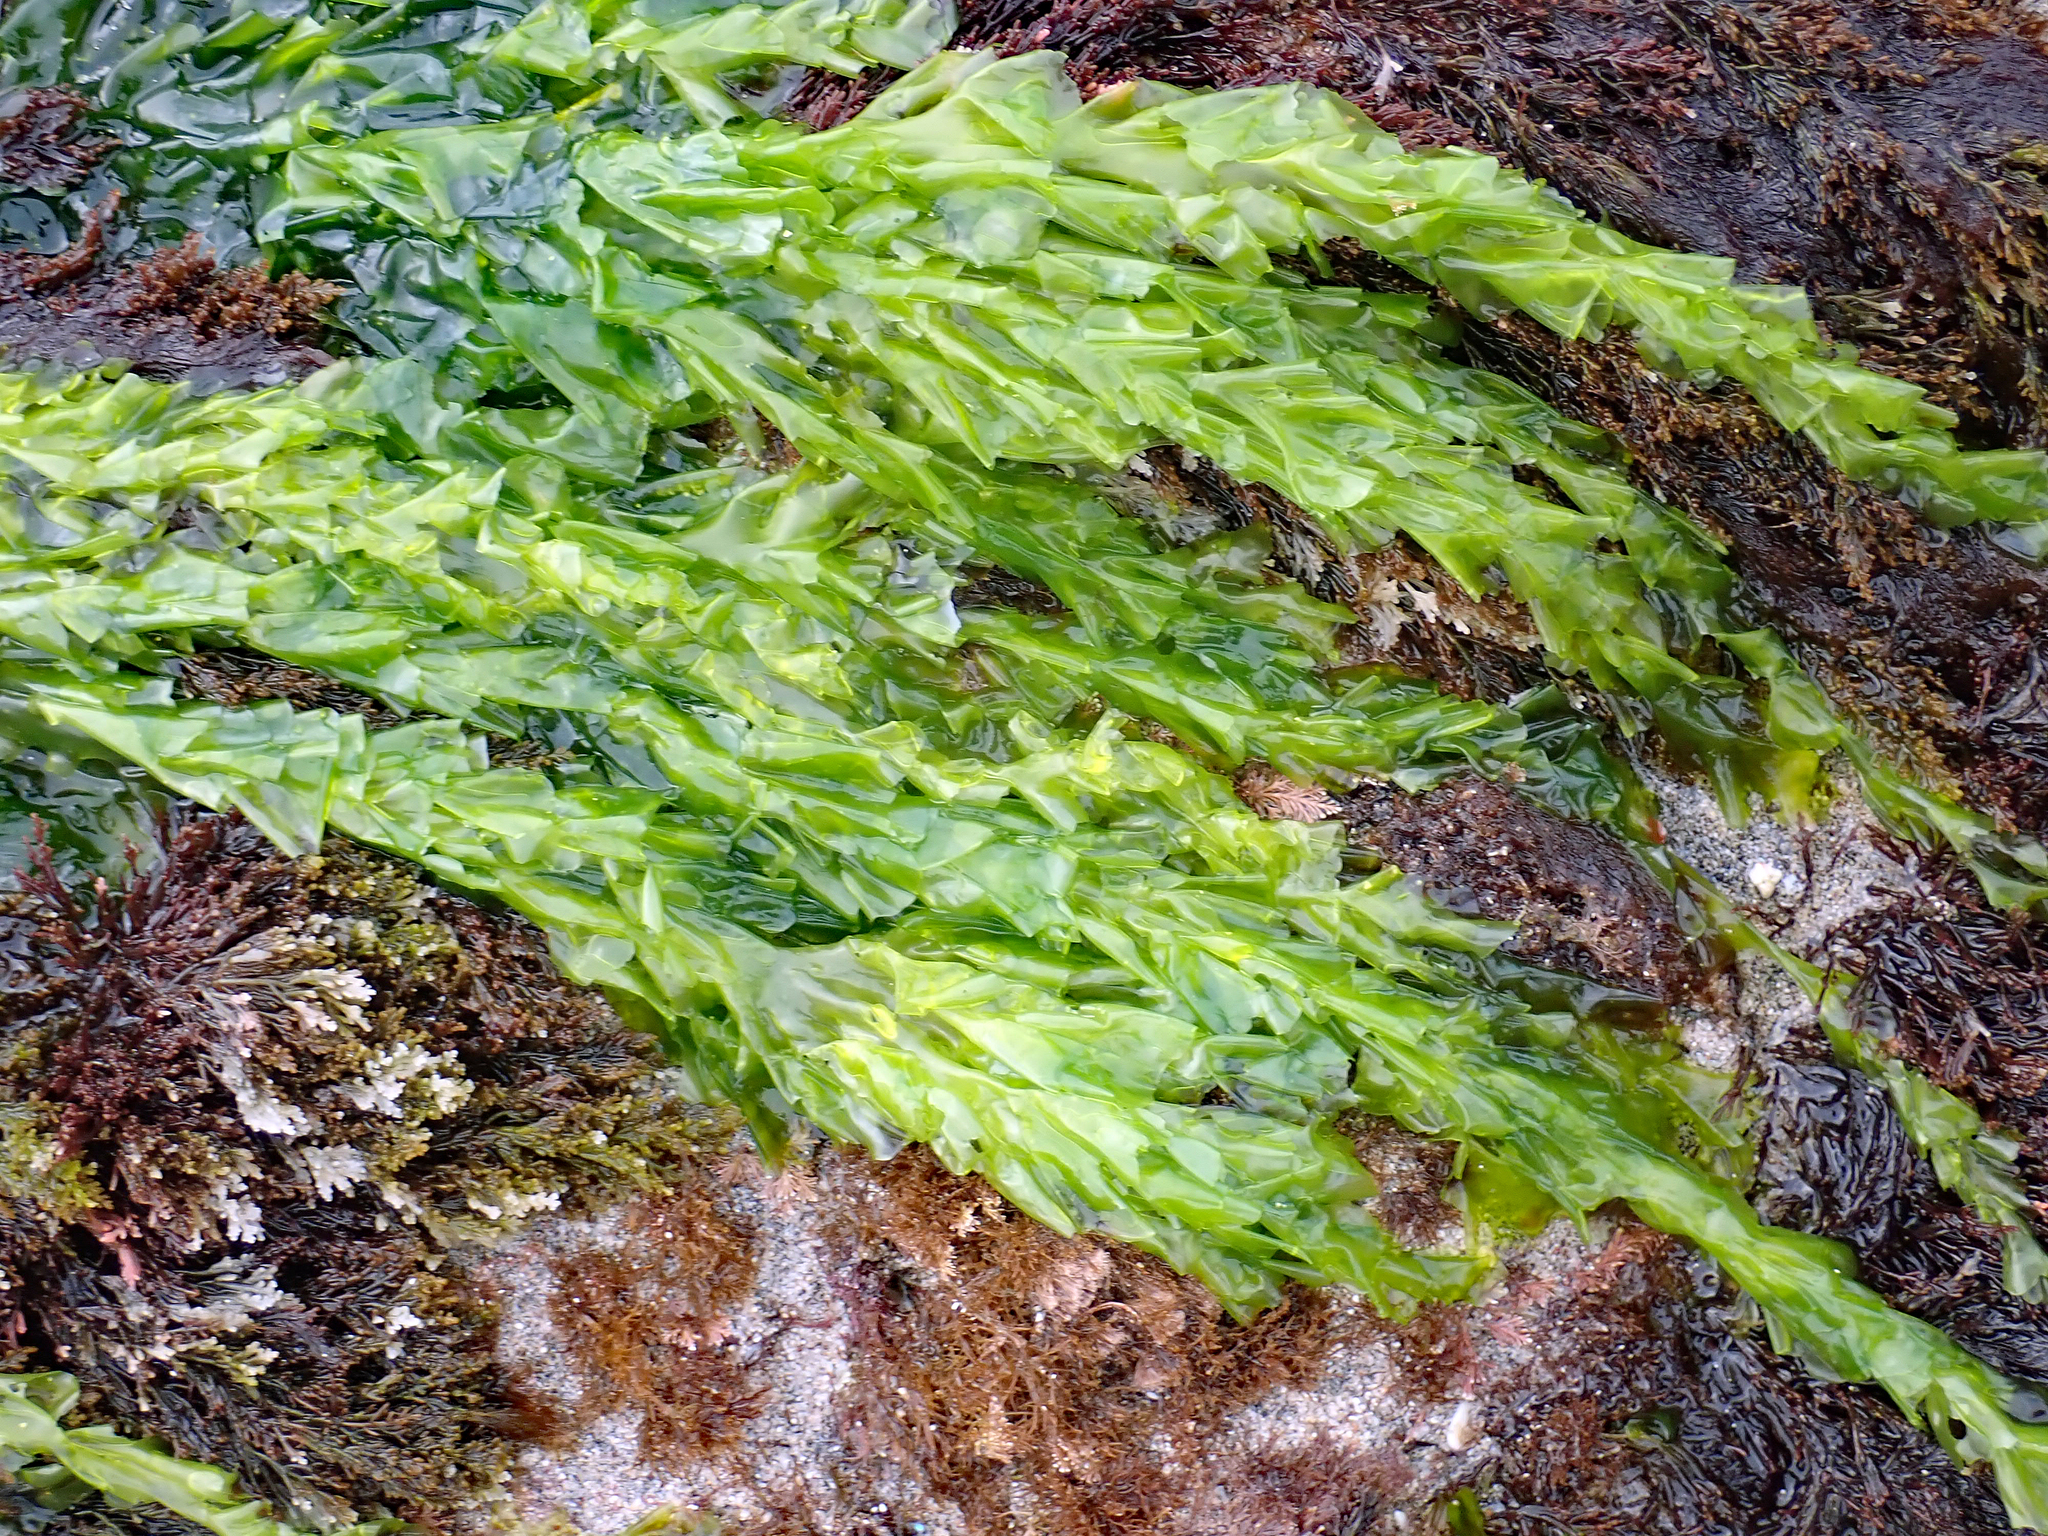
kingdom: Plantae
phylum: Chlorophyta
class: Ulvophyceae
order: Ulvales
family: Ulvaceae
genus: Ulva
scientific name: Ulva
